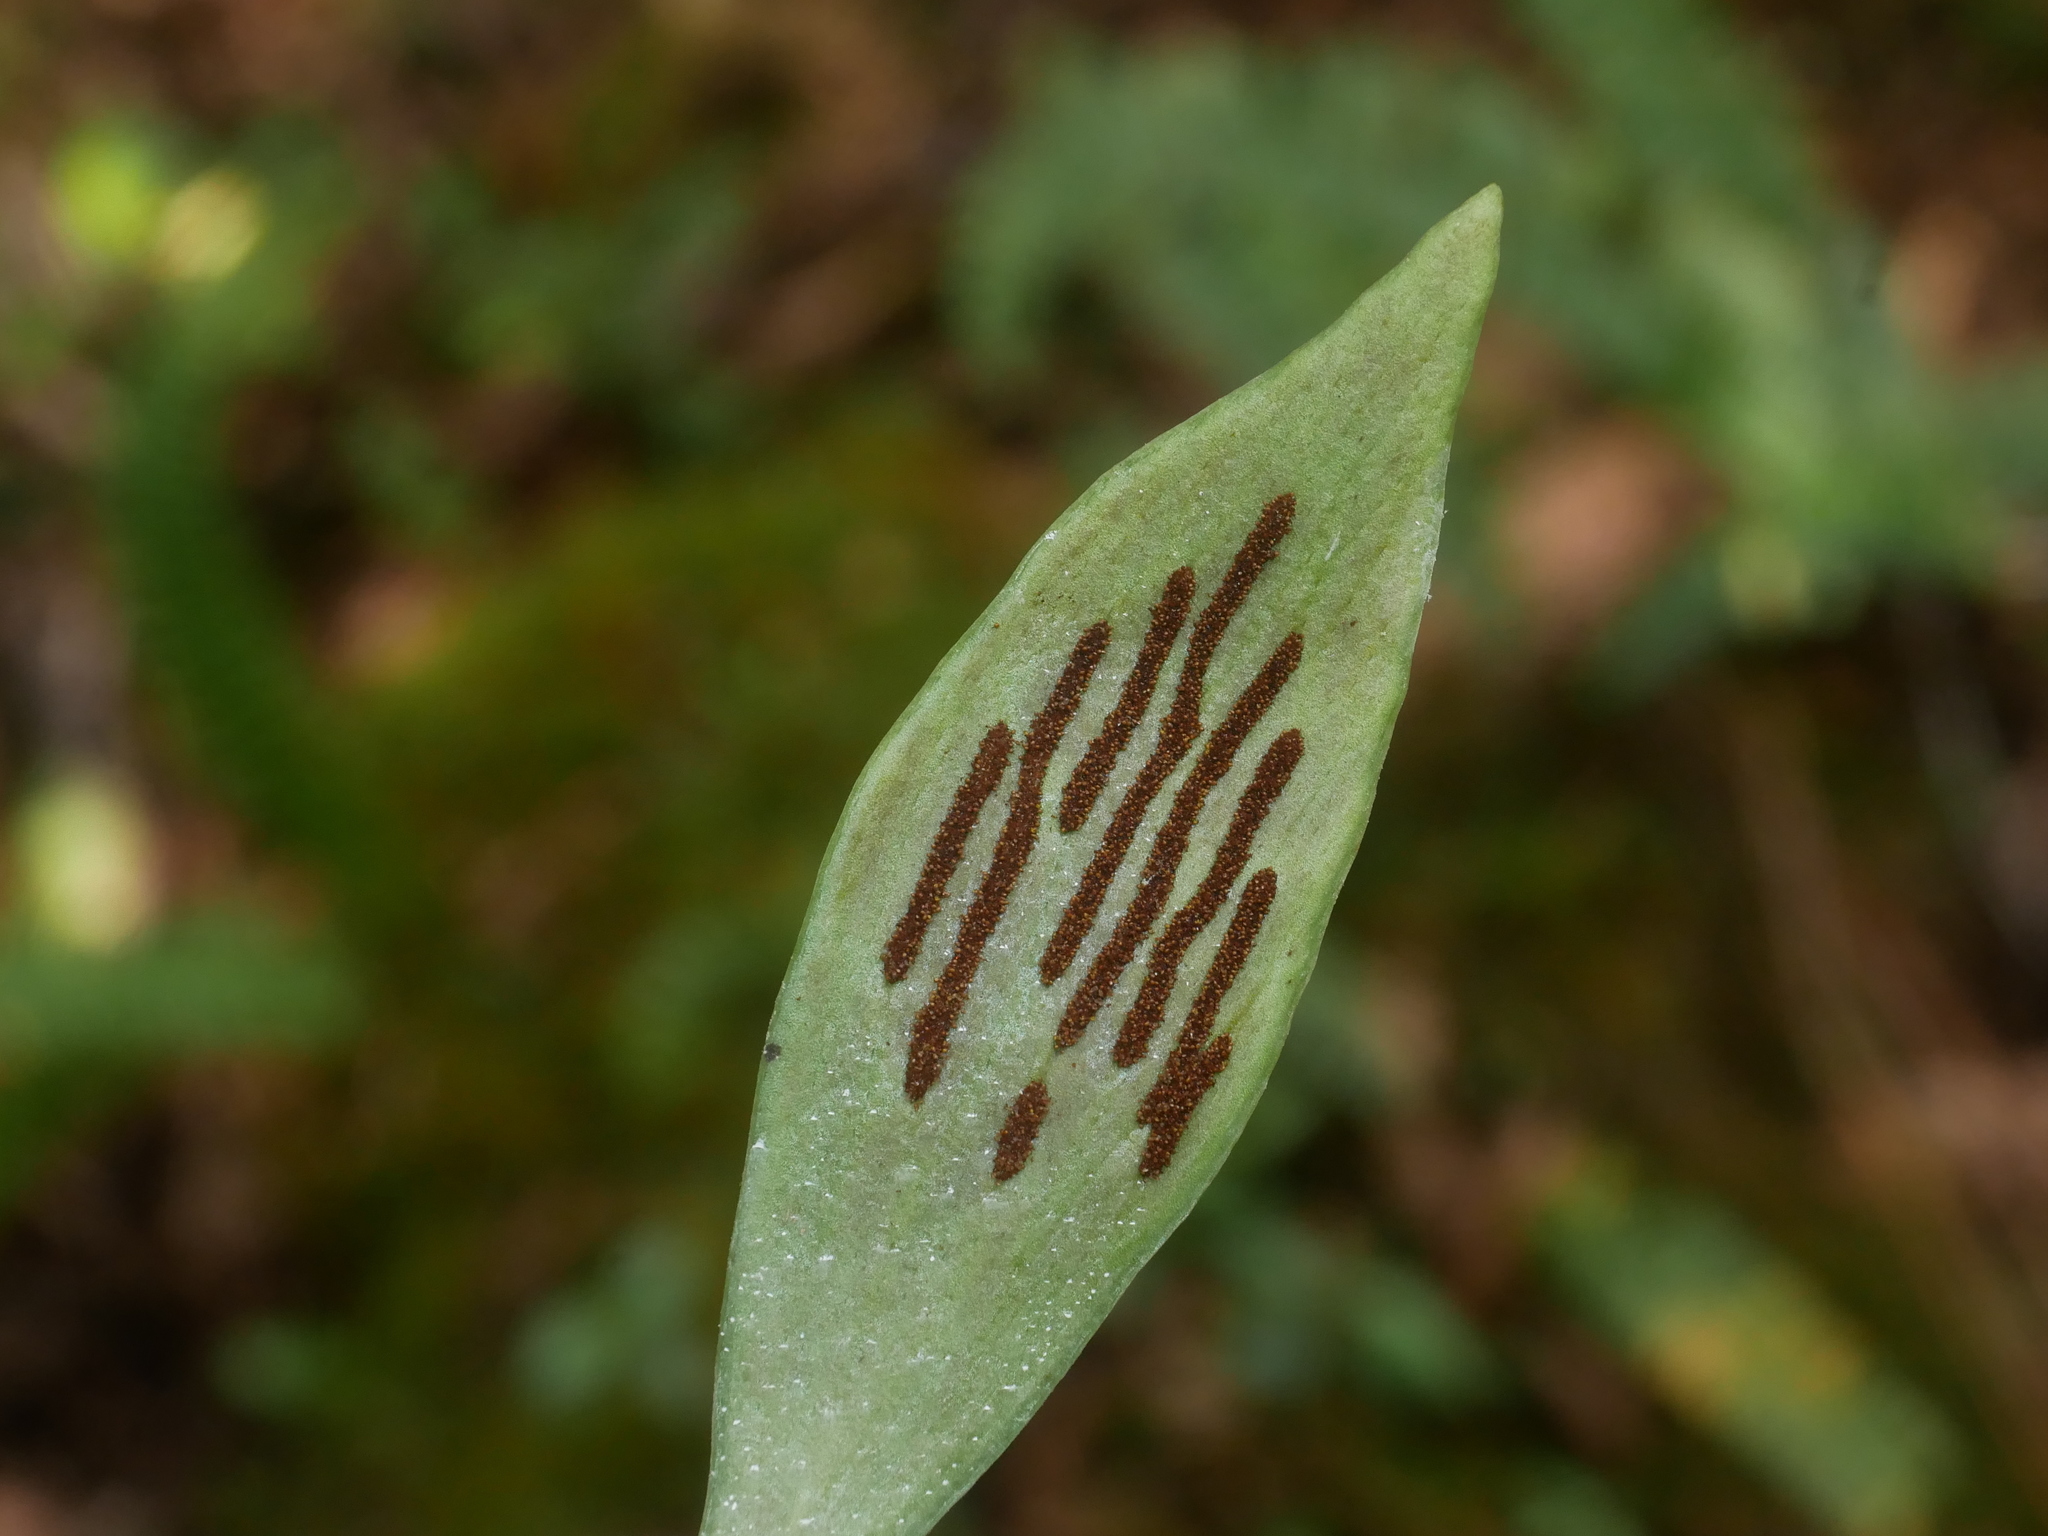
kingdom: Plantae
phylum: Tracheophyta
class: Polypodiopsida
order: Polypodiales
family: Pteridaceae
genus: Antrophyum
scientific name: Antrophyum formosanum
